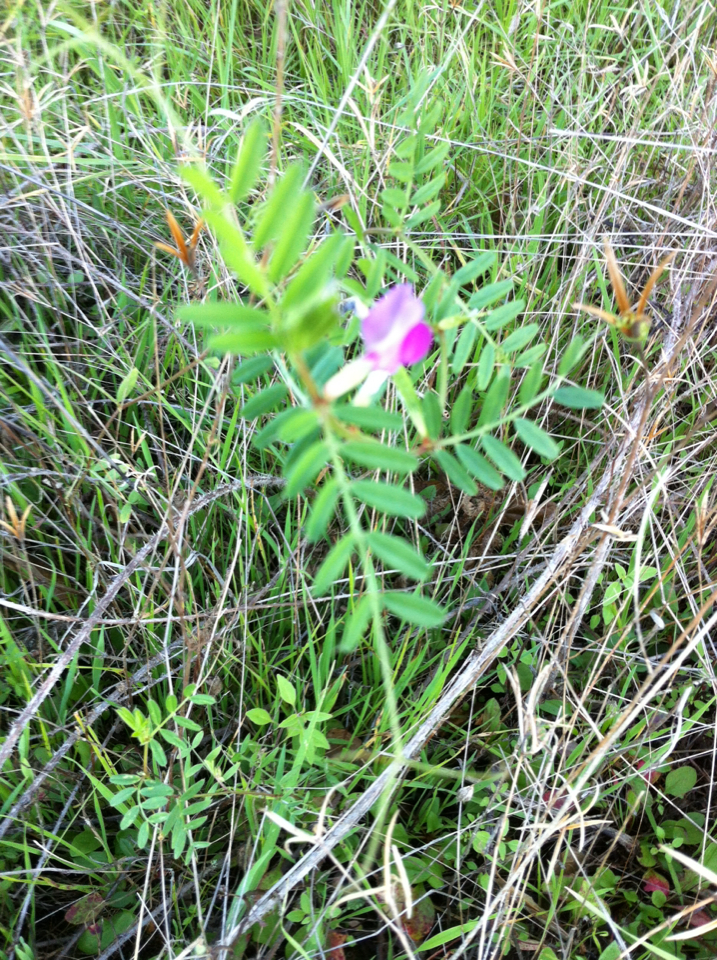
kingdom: Plantae
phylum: Tracheophyta
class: Magnoliopsida
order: Fabales
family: Fabaceae
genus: Vicia
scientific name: Vicia sativa
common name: Garden vetch
